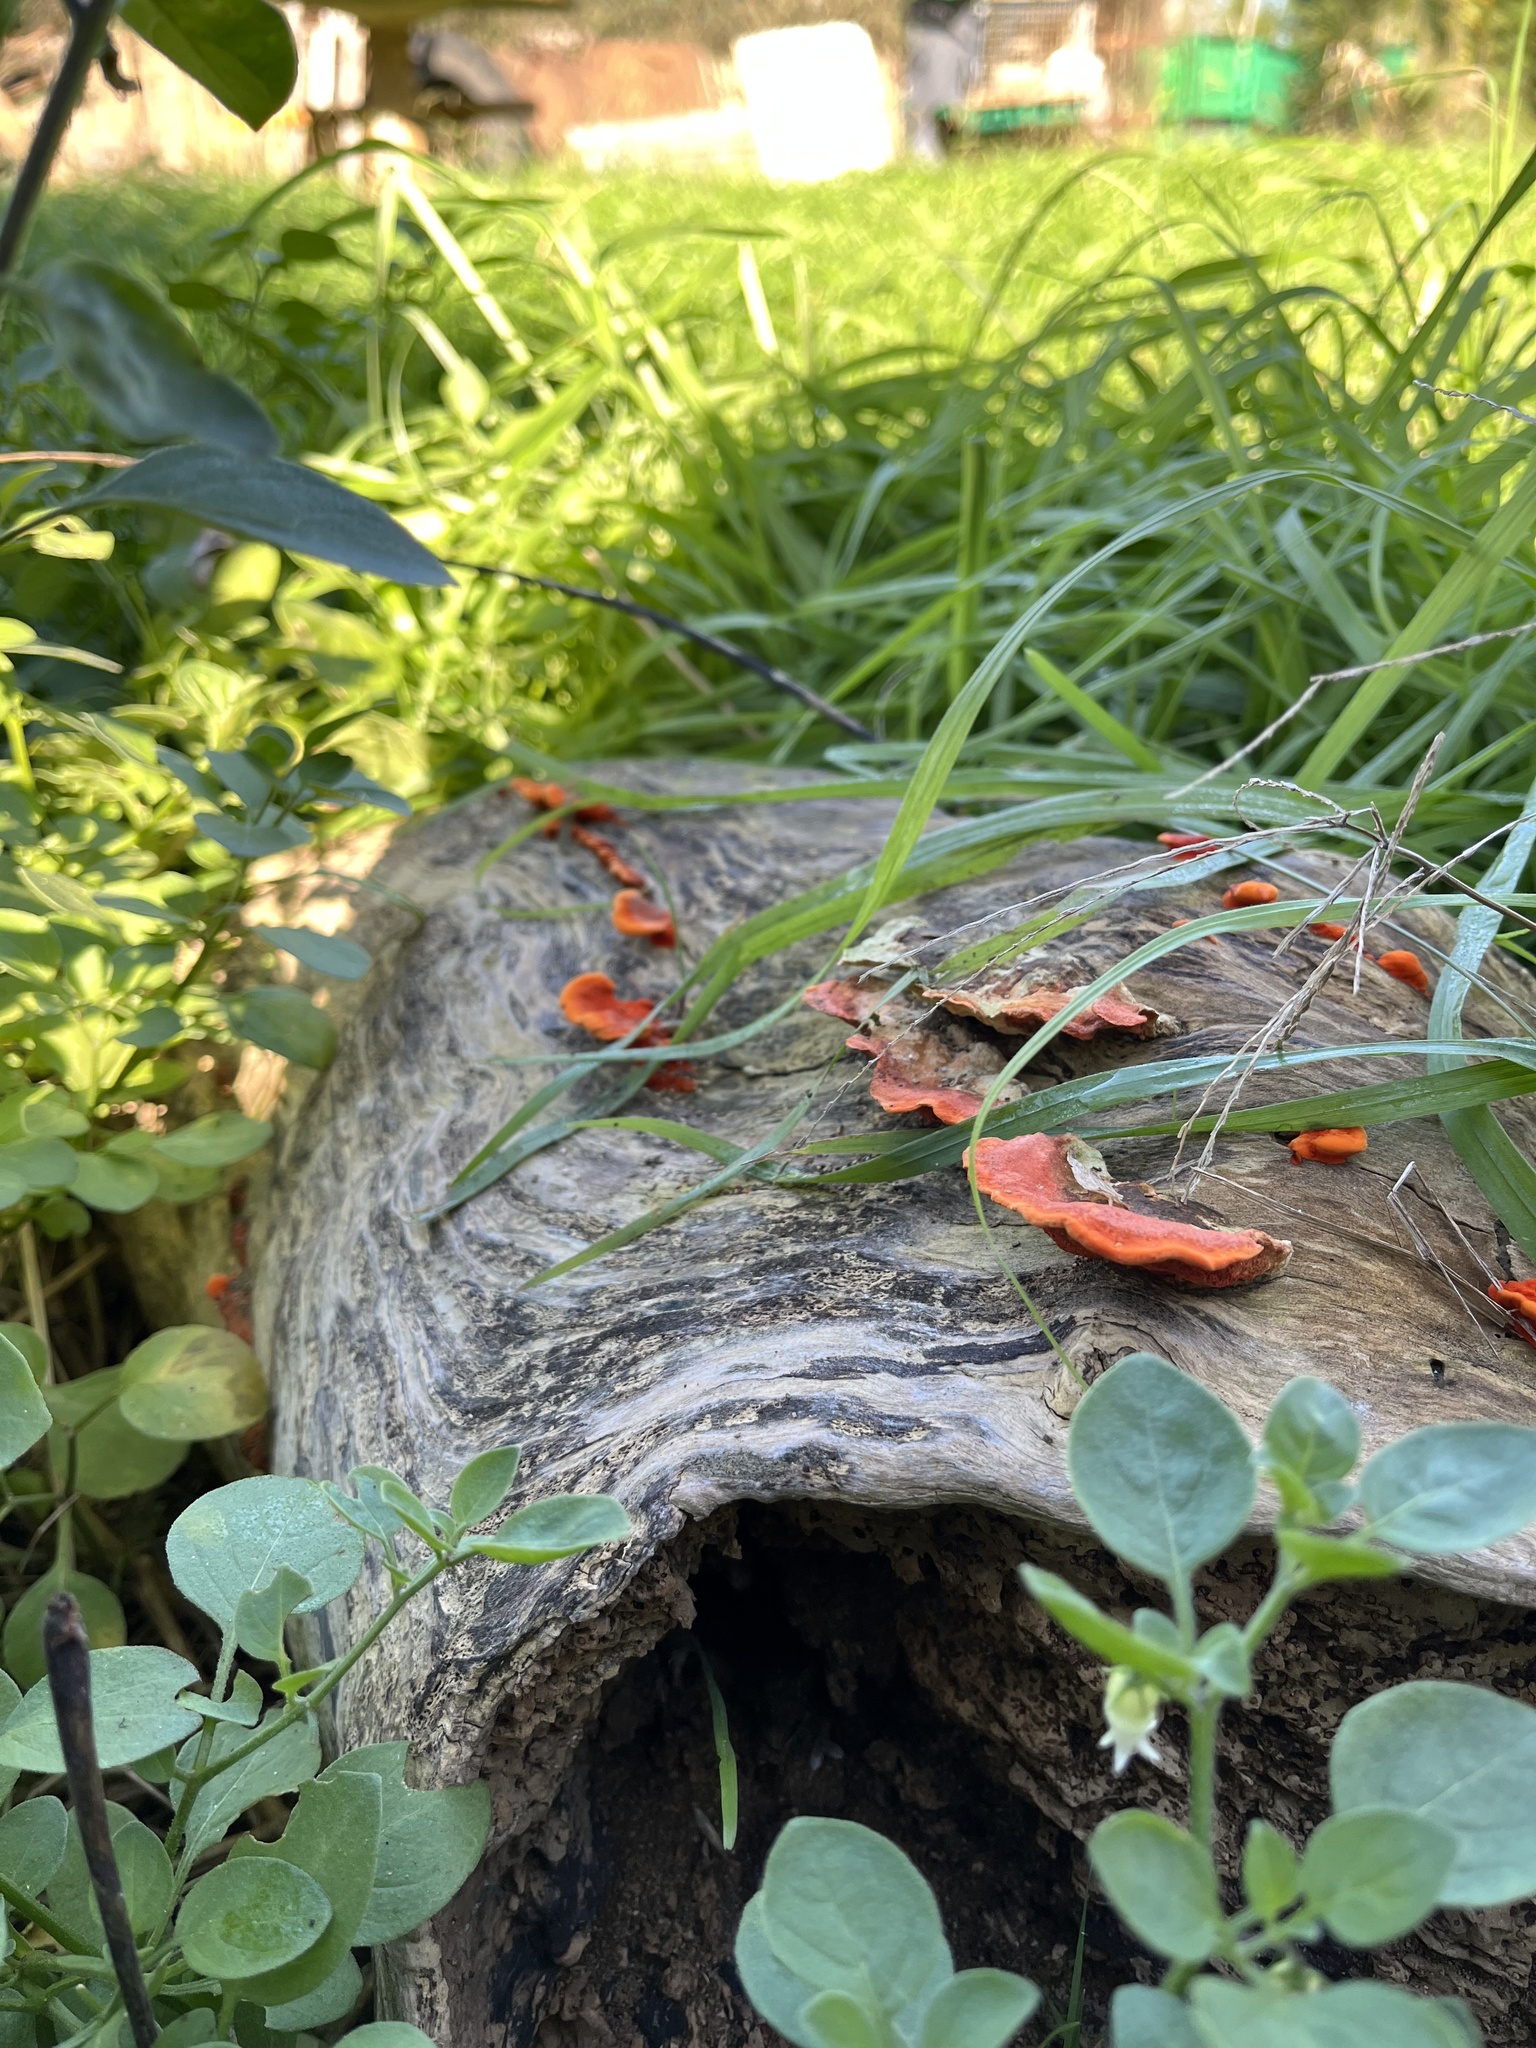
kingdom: Fungi
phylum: Basidiomycota
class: Agaricomycetes
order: Polyporales
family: Polyporaceae
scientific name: Polyporaceae
